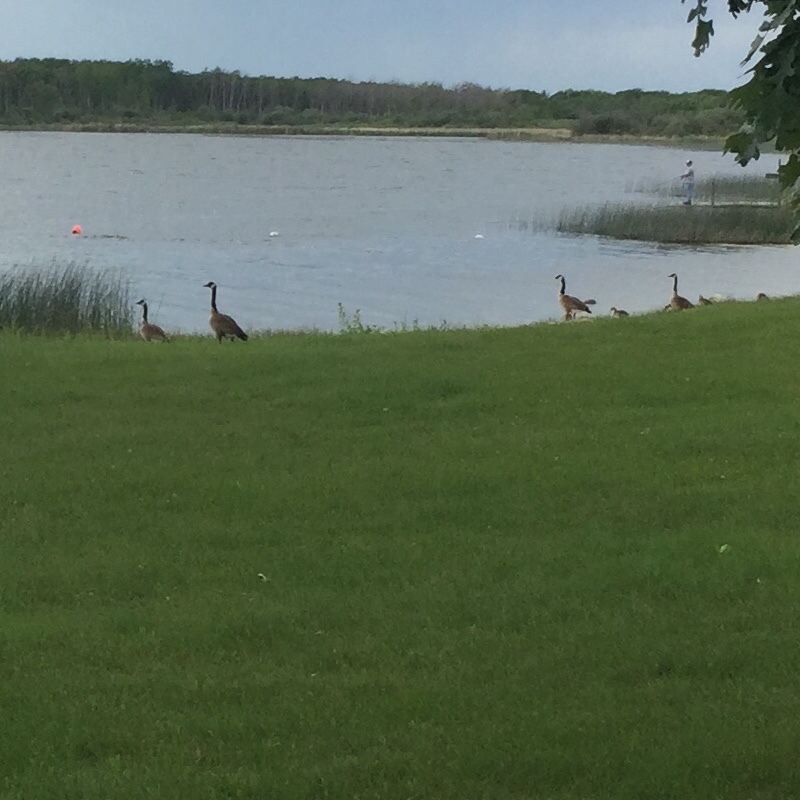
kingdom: Animalia
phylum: Chordata
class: Aves
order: Anseriformes
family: Anatidae
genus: Branta
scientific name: Branta canadensis
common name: Canada goose
